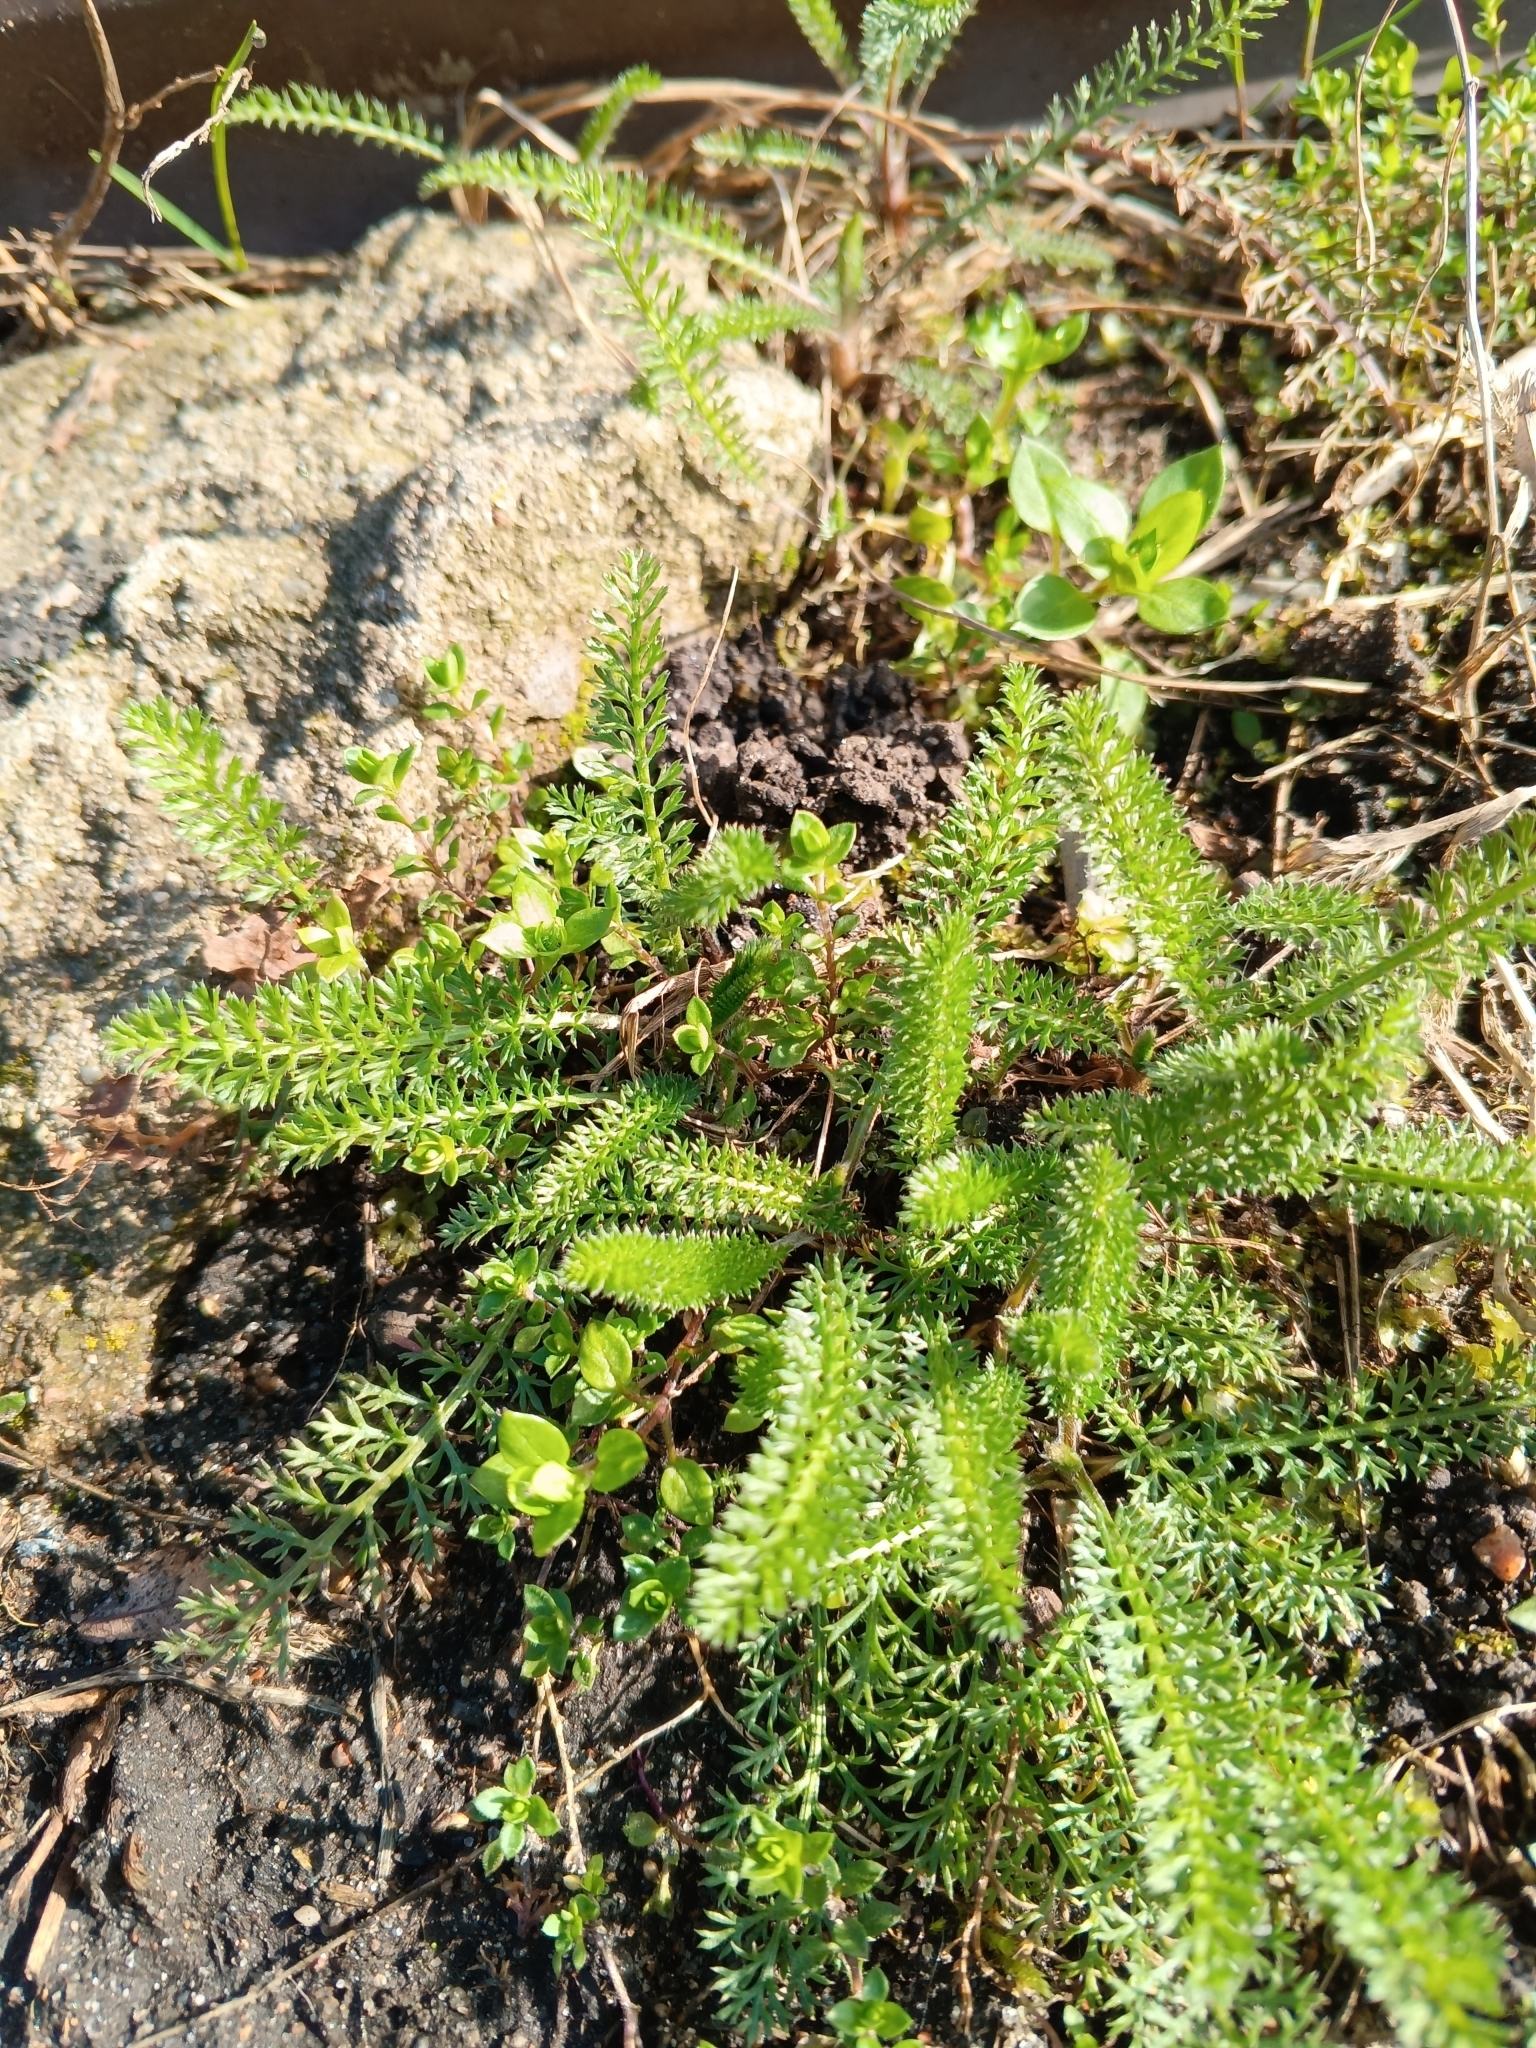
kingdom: Plantae
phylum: Tracheophyta
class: Magnoliopsida
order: Asterales
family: Asteraceae
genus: Achillea
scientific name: Achillea millefolium
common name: Yarrow
